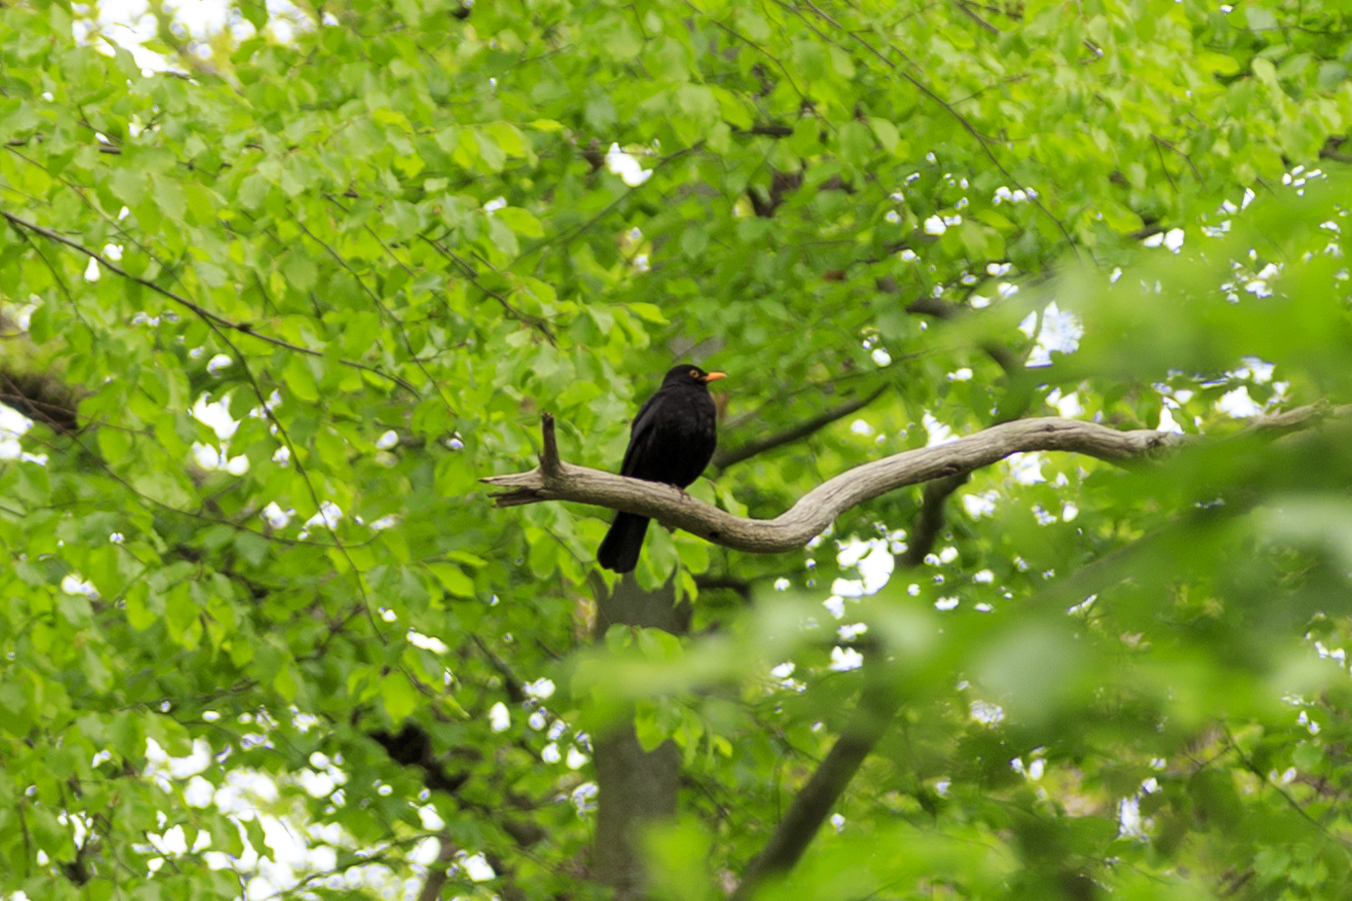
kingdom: Animalia
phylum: Chordata
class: Aves
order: Passeriformes
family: Turdidae
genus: Turdus
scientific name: Turdus merula
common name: Common blackbird
